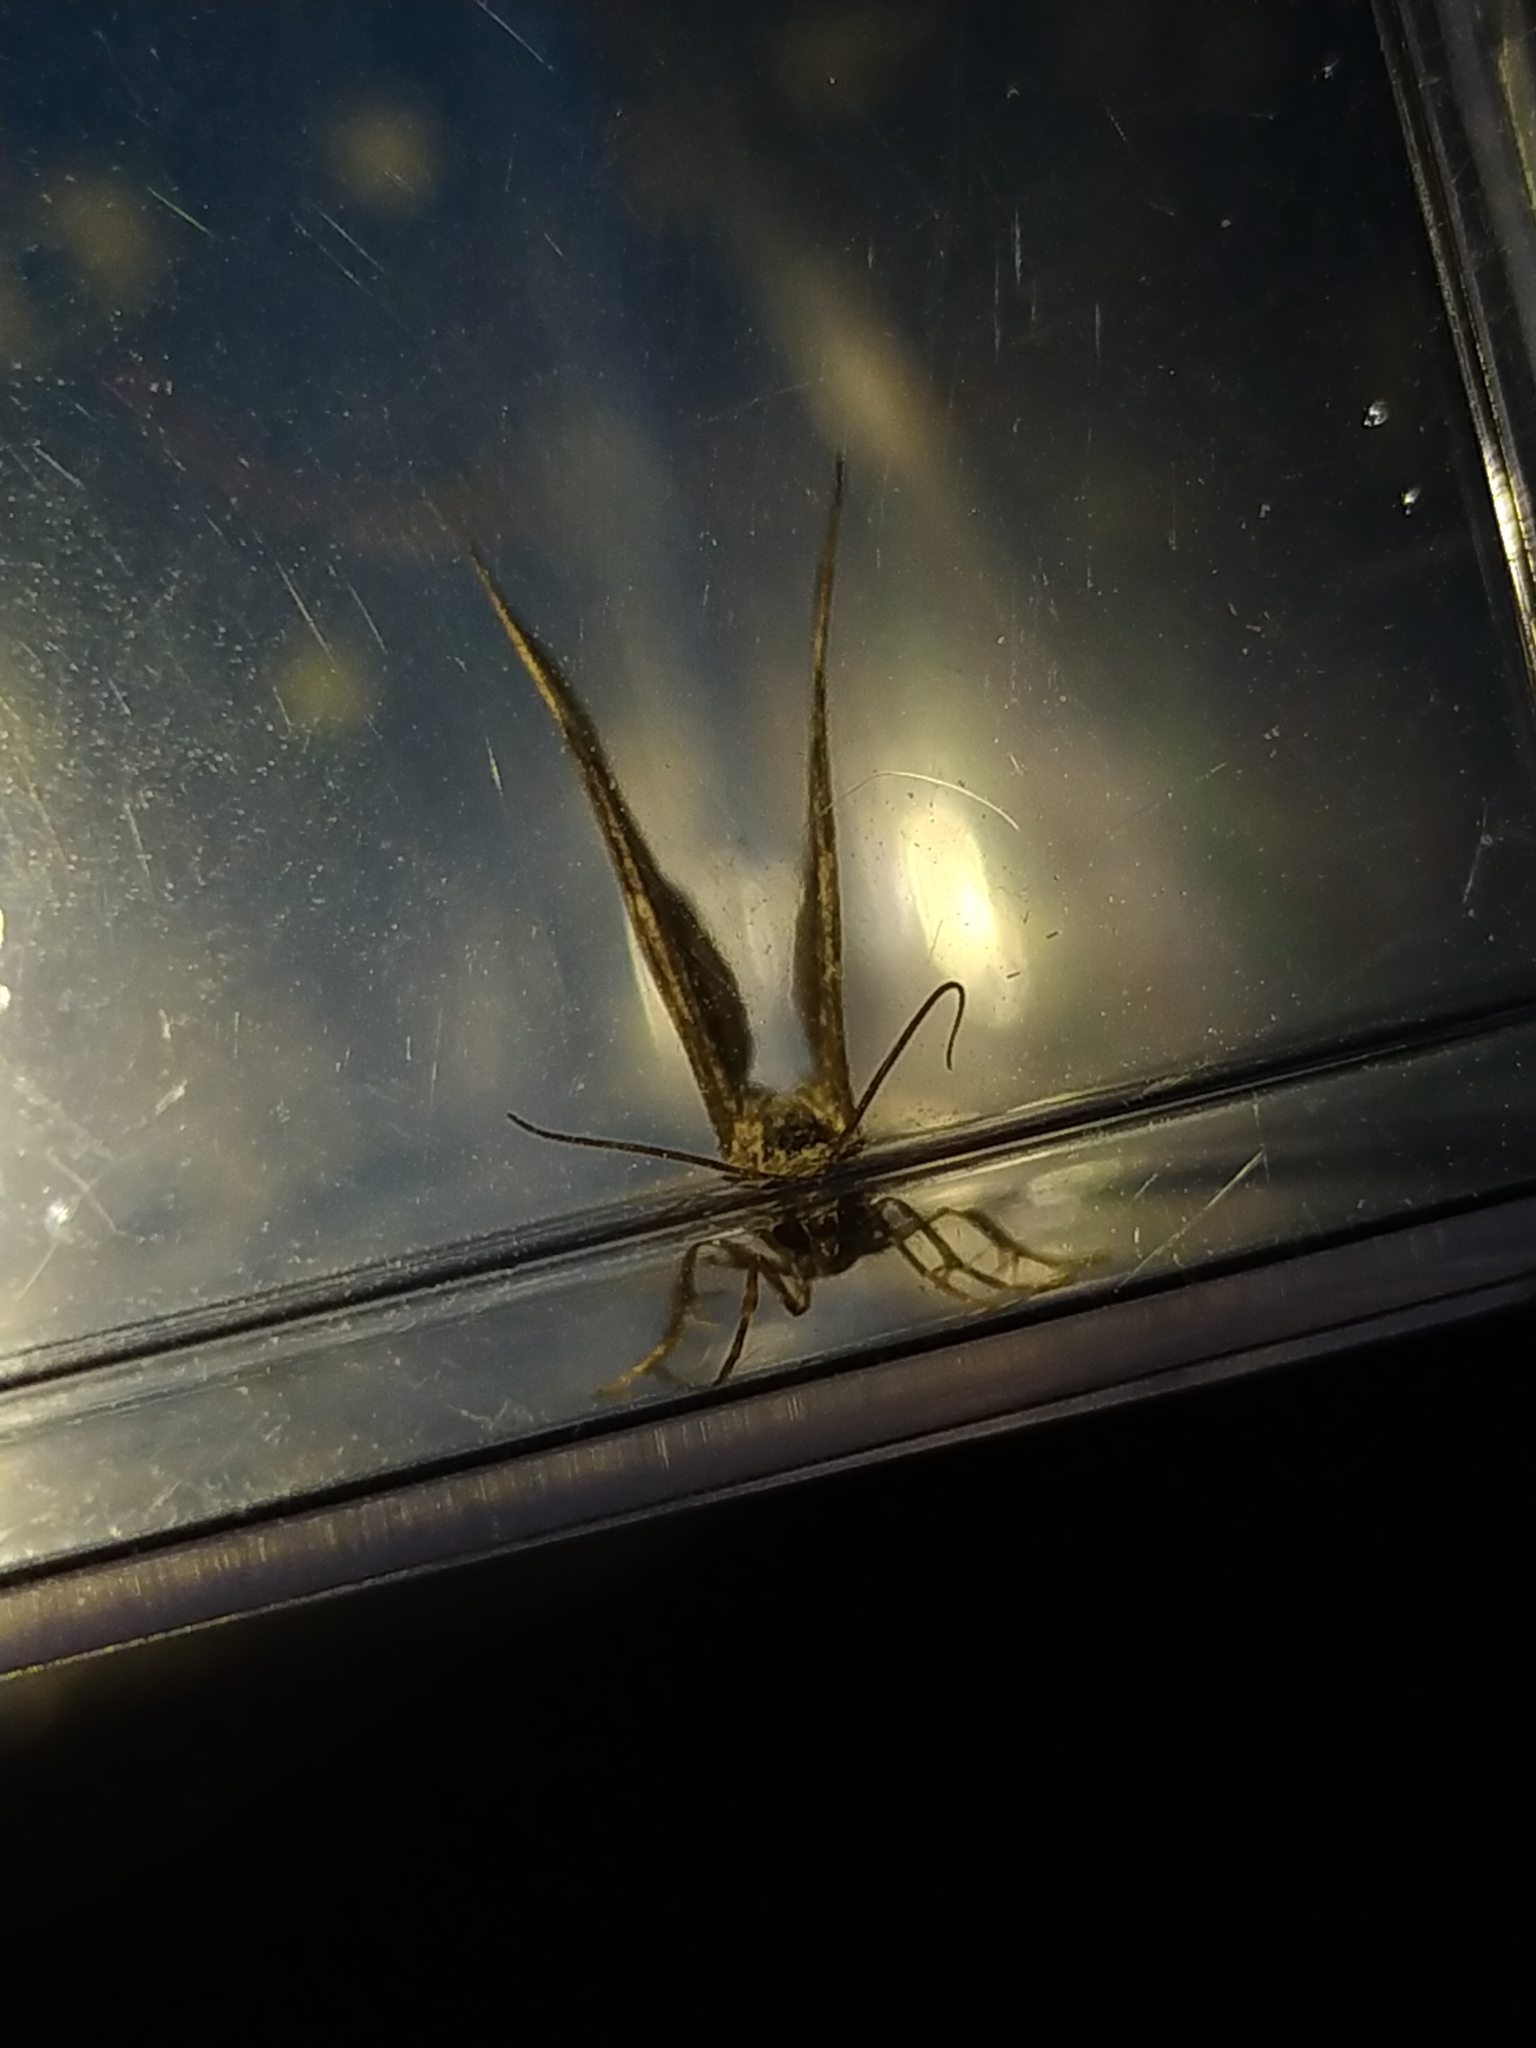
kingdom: Animalia
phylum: Arthropoda
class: Insecta
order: Lepidoptera
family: Geometridae
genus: Epirrhoe
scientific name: Epirrhoe alternata
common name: Common carpet
